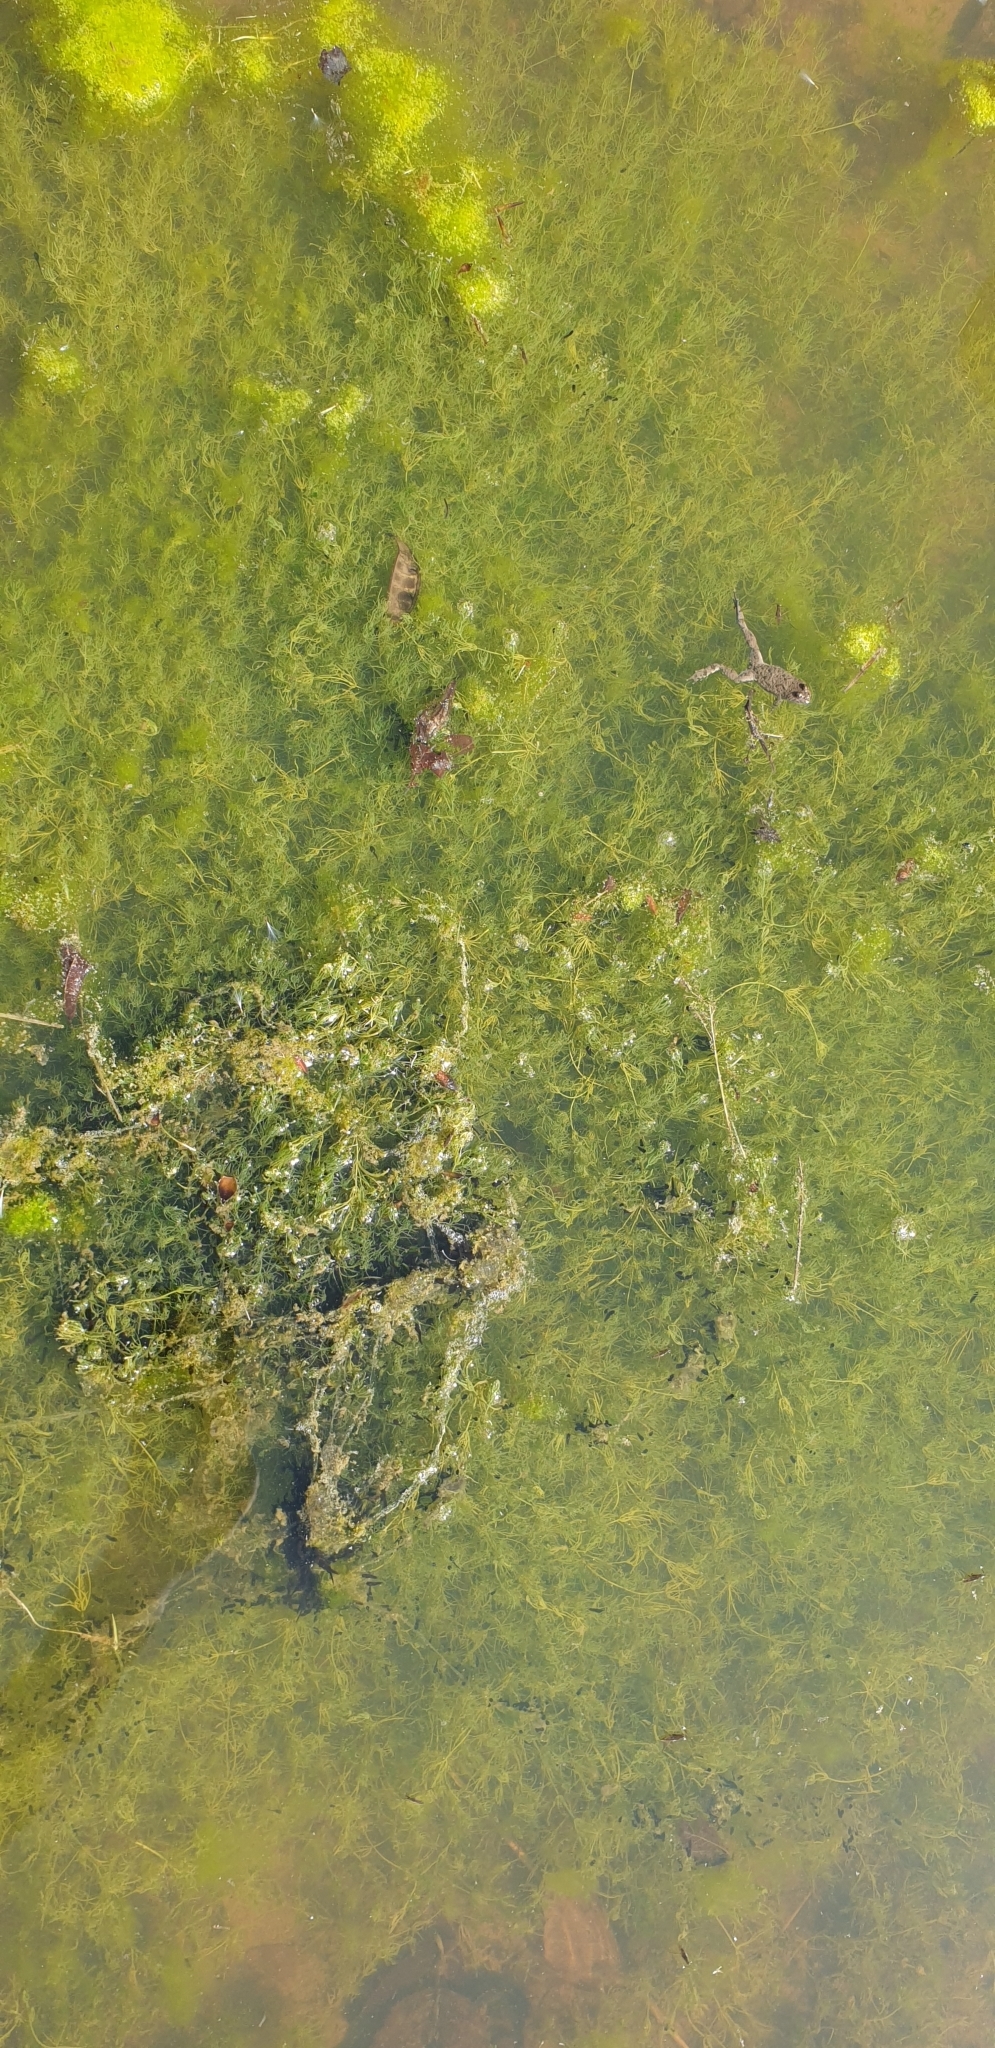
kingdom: Animalia
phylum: Chordata
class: Amphibia
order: Anura
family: Bombinatoridae
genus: Bombina
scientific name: Bombina variegata
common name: Yellow-bellied toad
